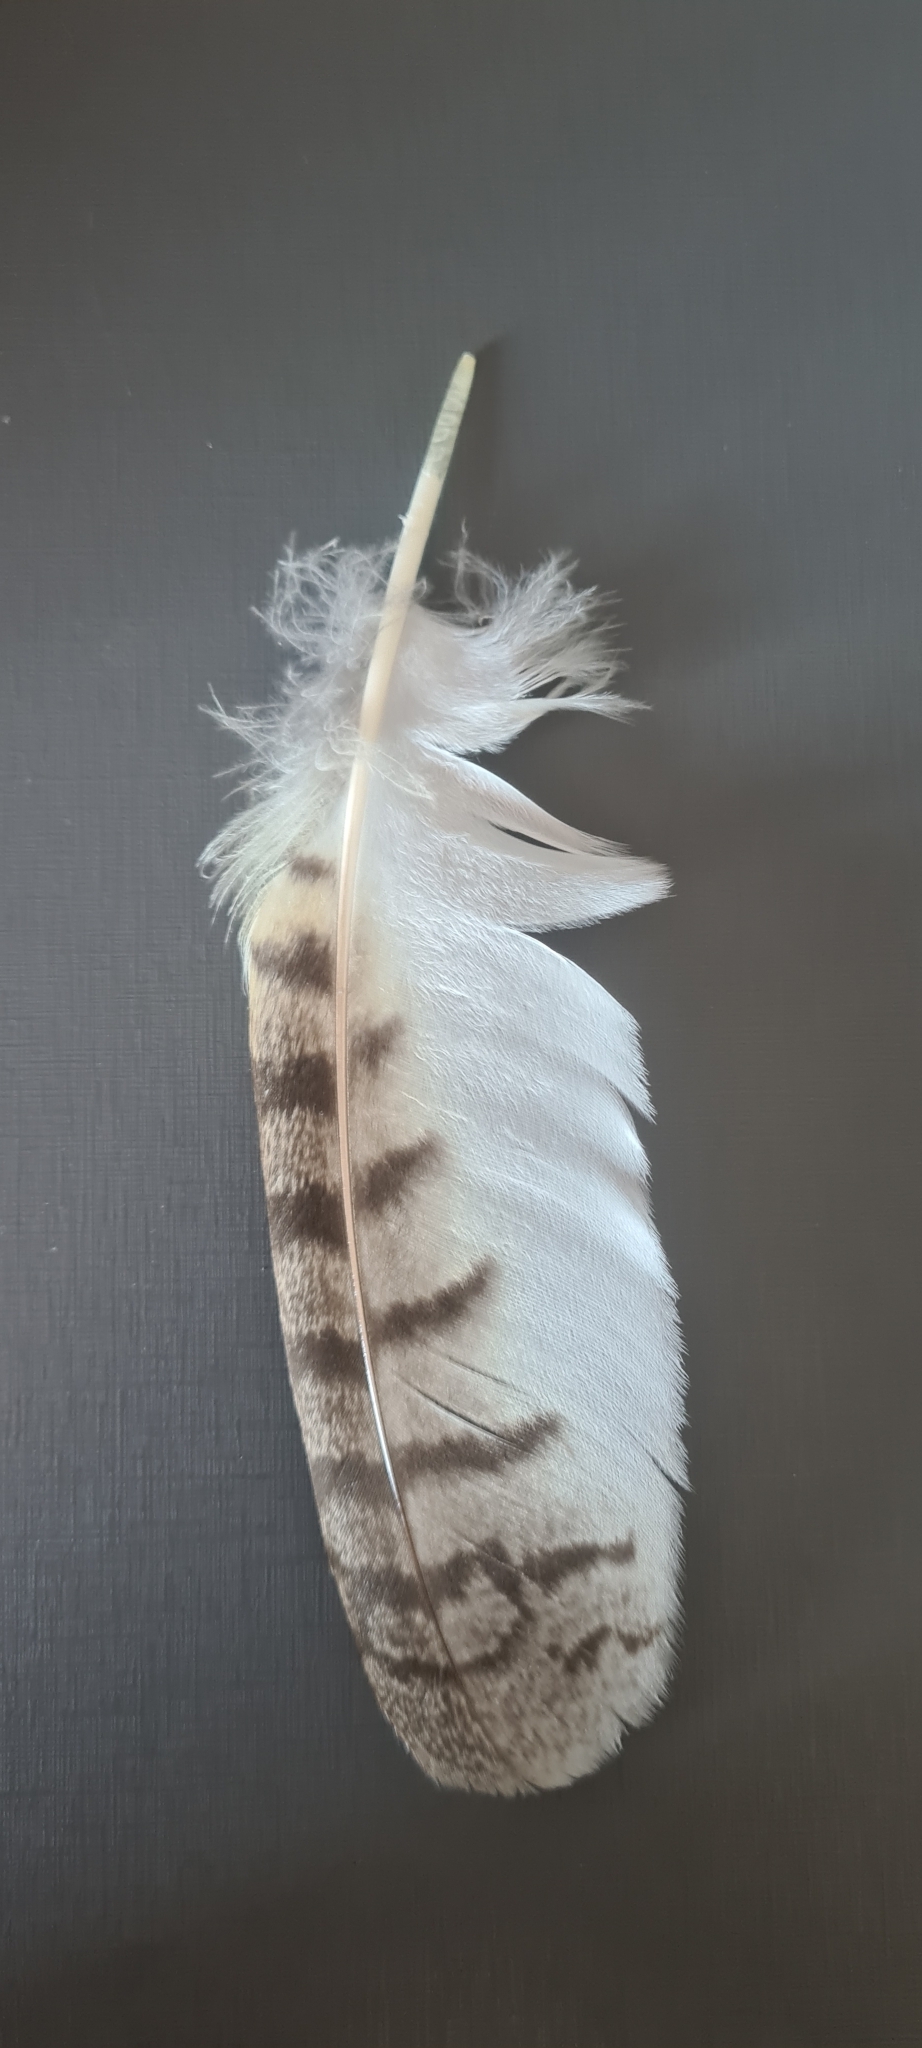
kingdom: Animalia
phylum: Chordata
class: Aves
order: Strigiformes
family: Strigidae
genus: Pseudoscops
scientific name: Pseudoscops clamator
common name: Striped owl
